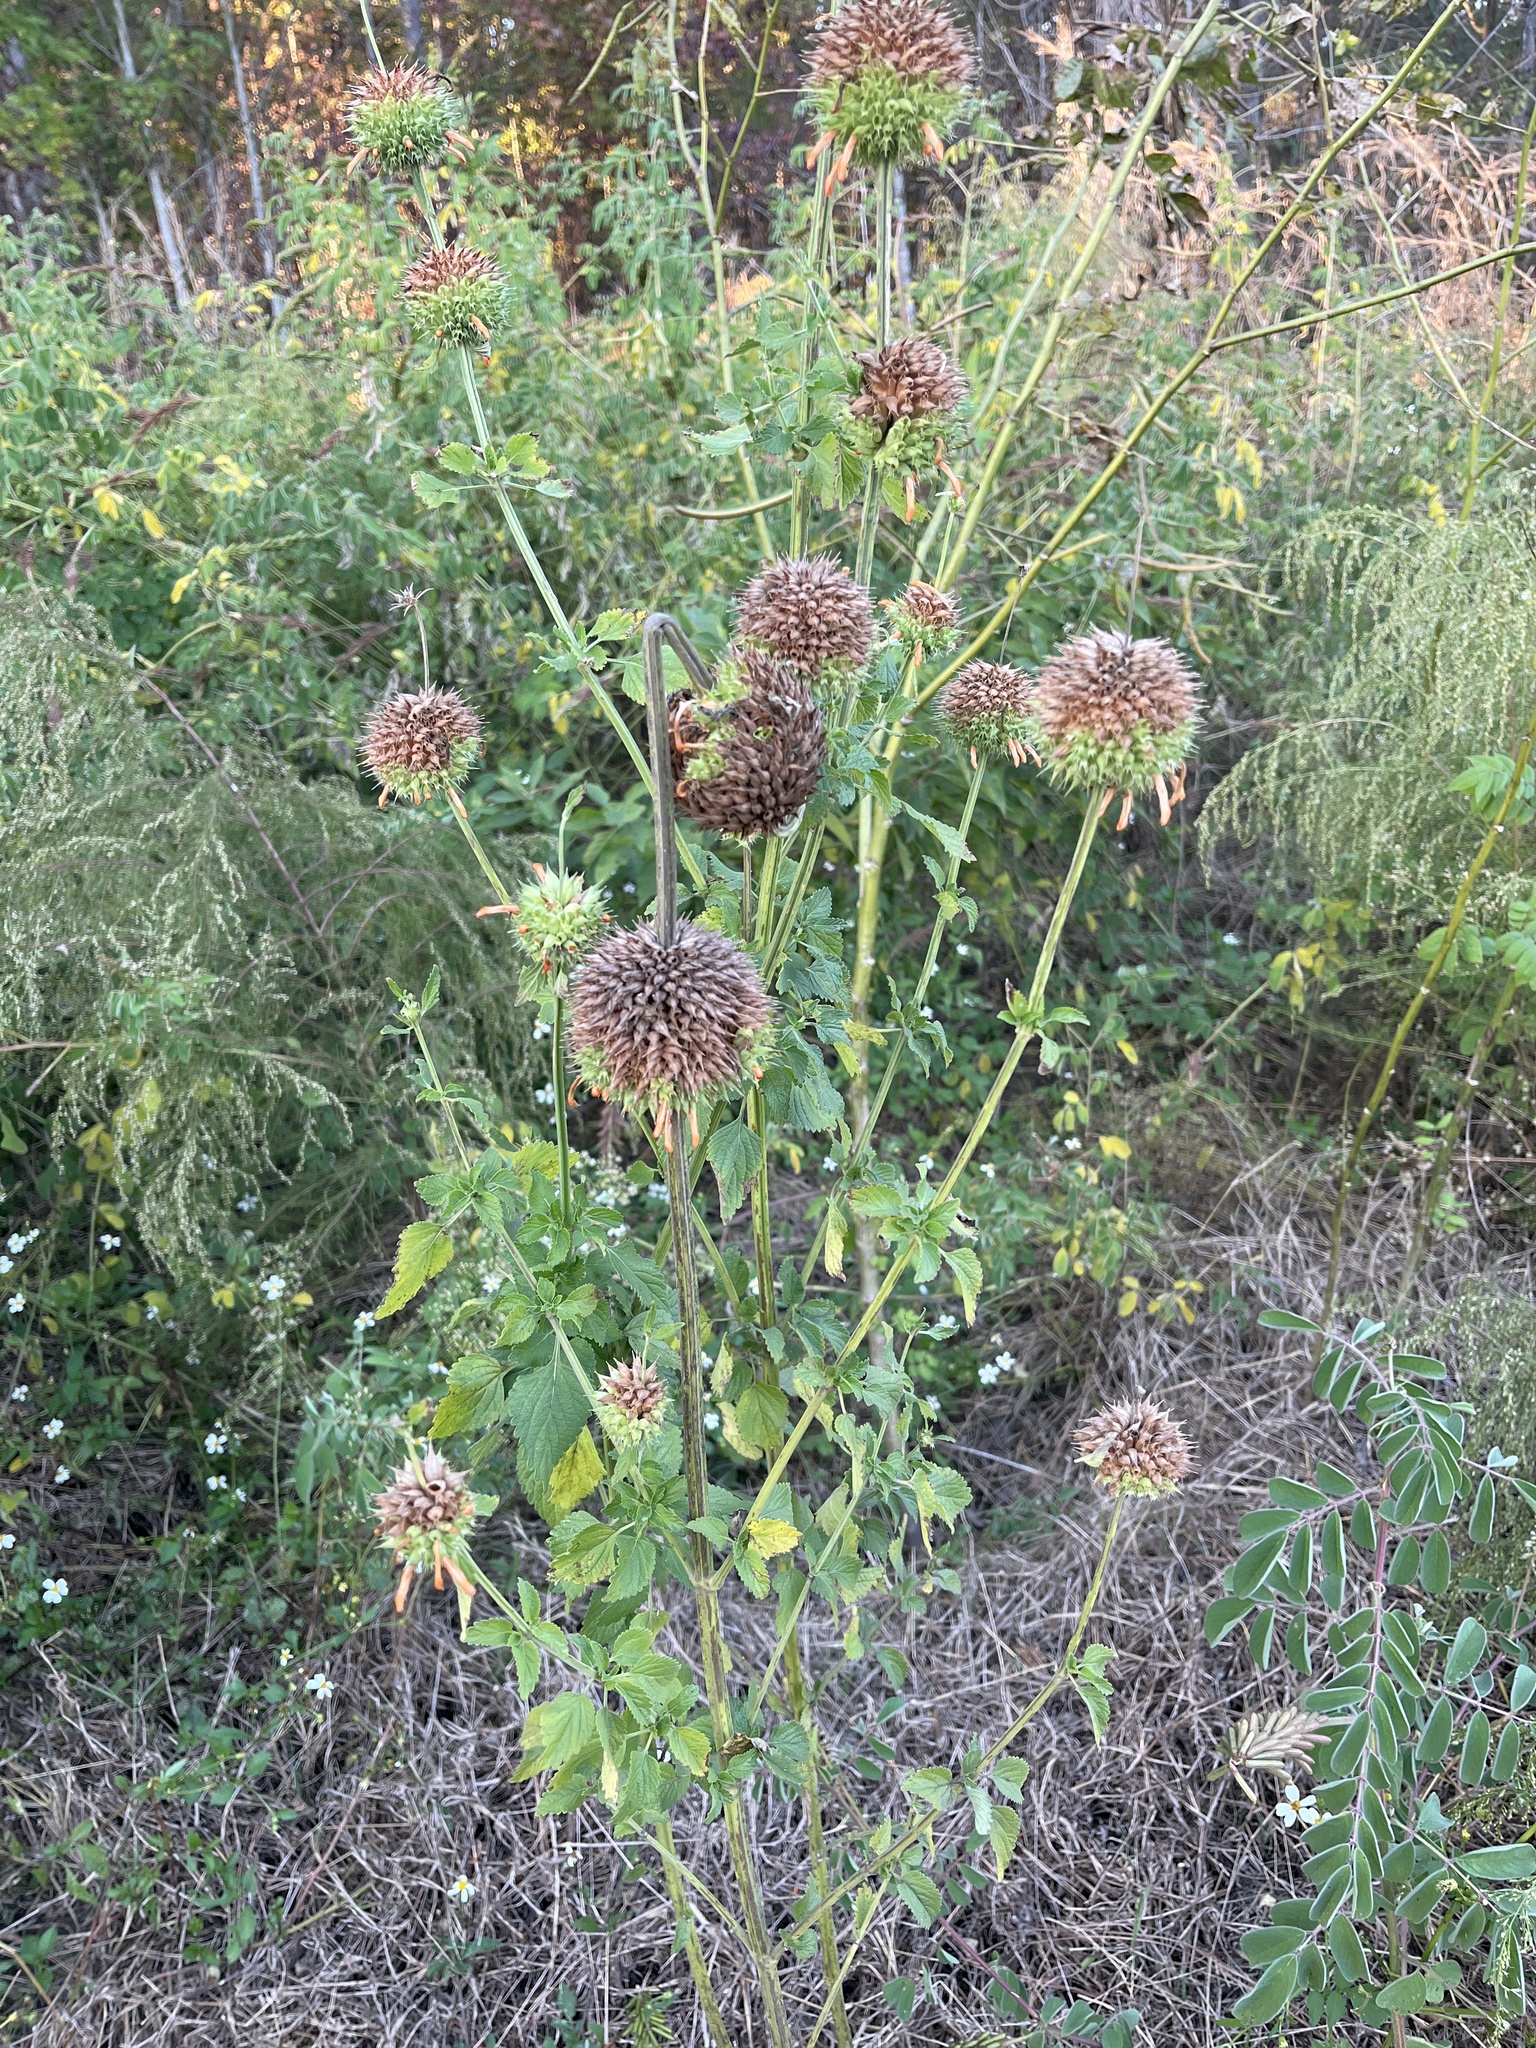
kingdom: Plantae
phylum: Tracheophyta
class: Magnoliopsida
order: Lamiales
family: Lamiaceae
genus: Leonotis
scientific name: Leonotis nepetifolia
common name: Christmas candlestick
